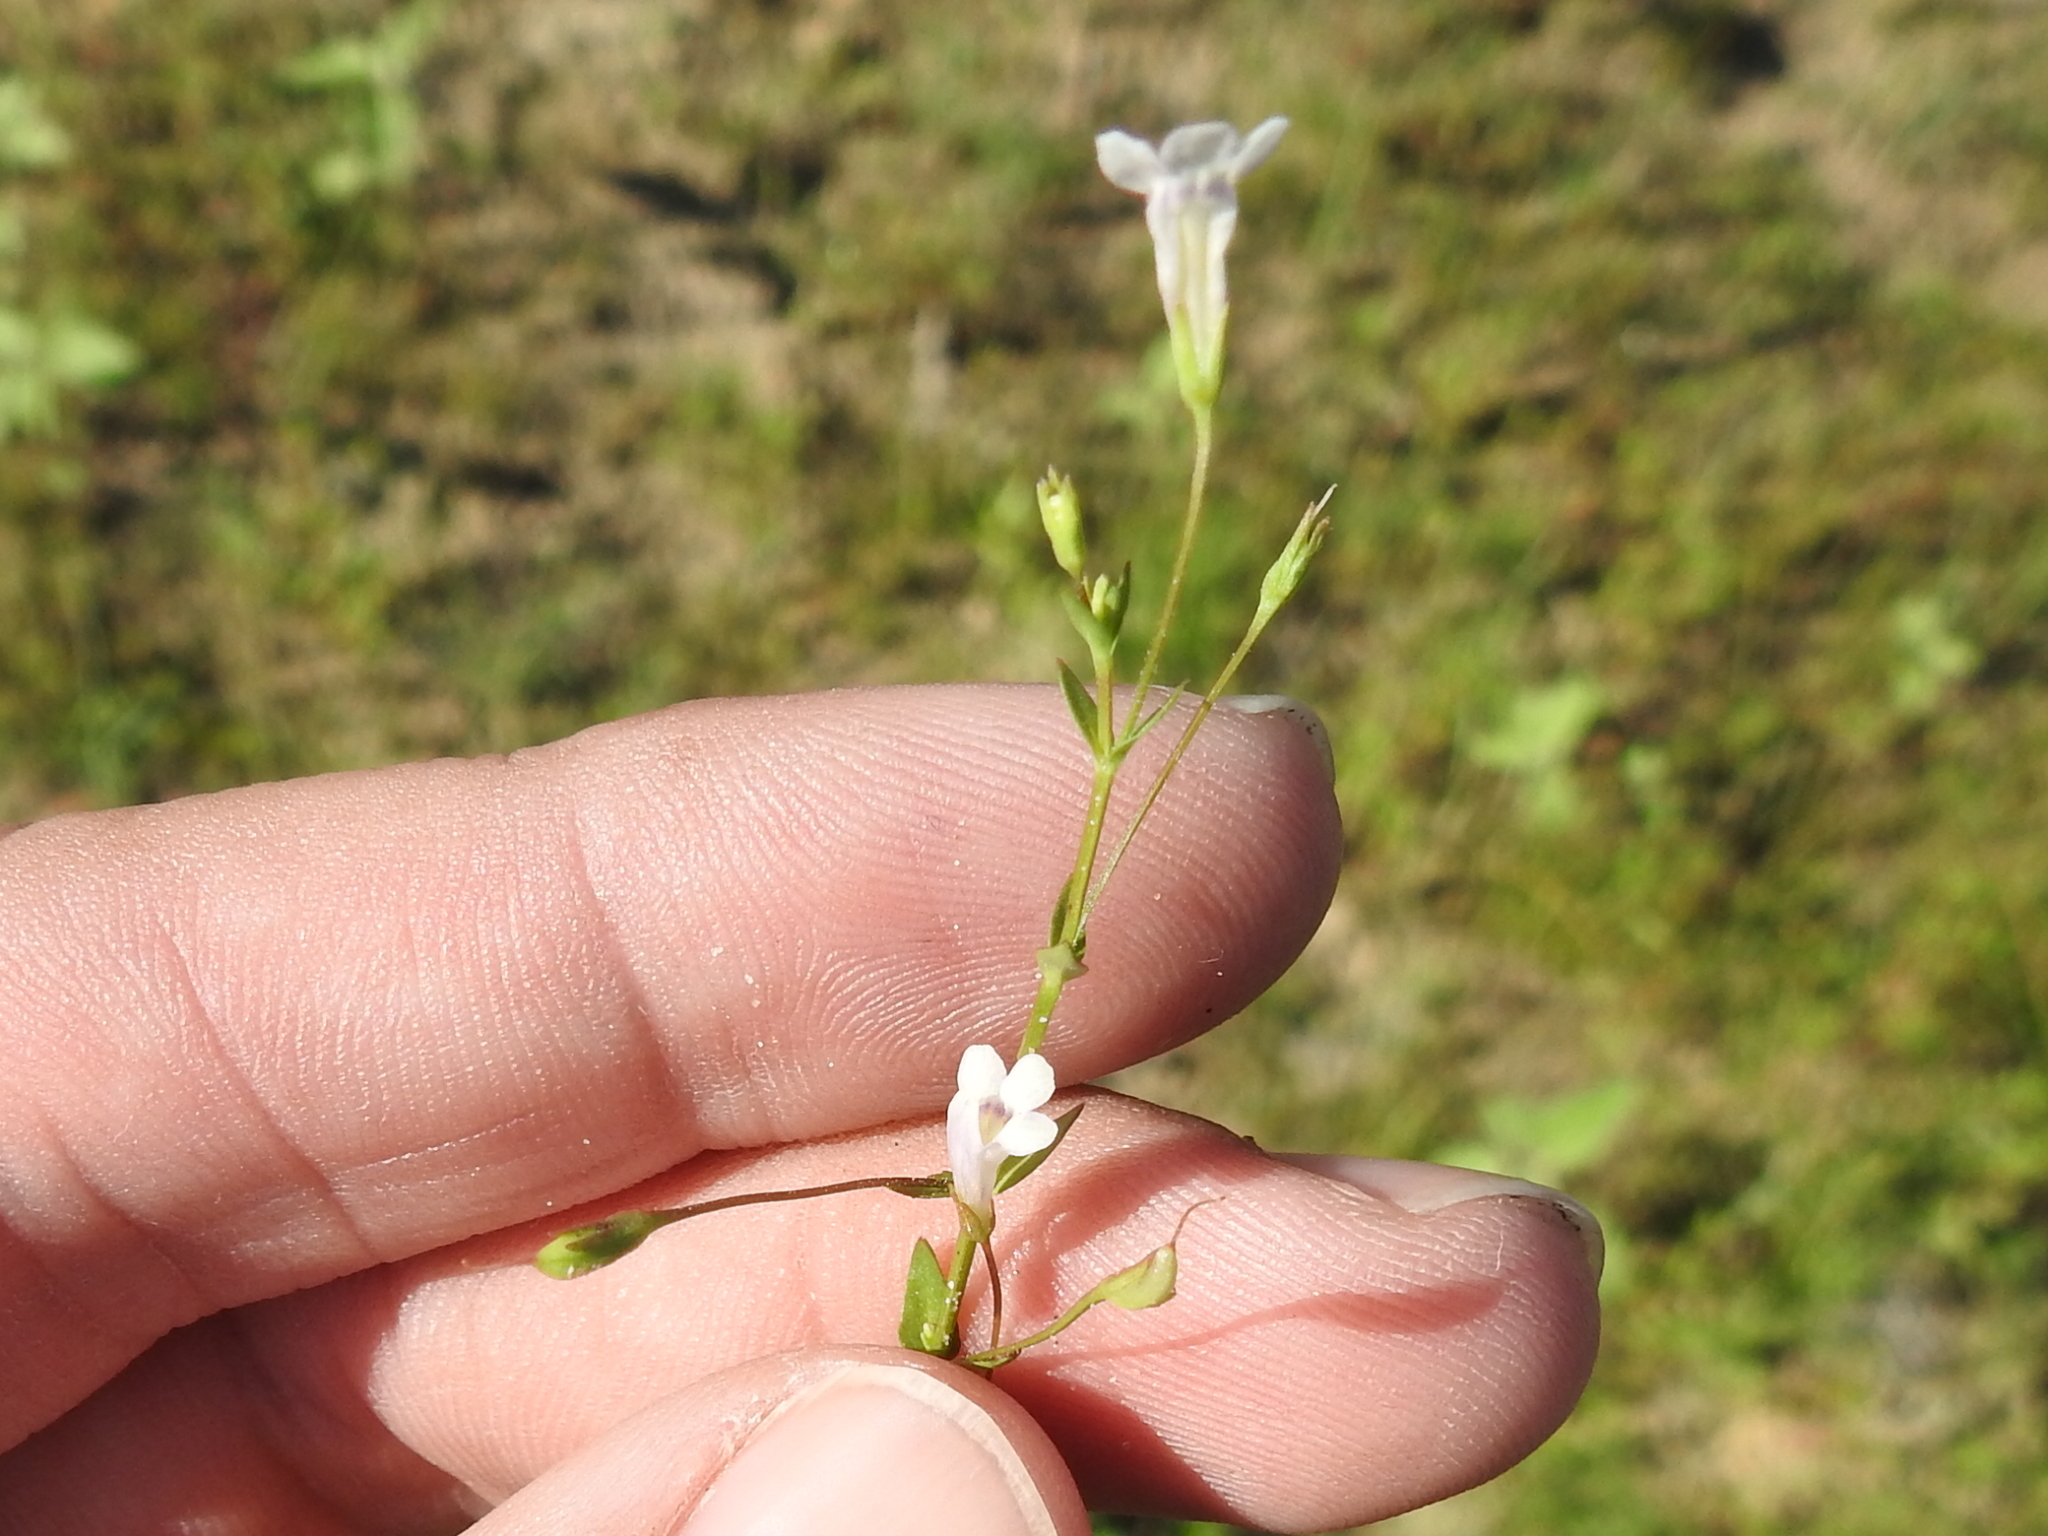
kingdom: Plantae
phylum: Tracheophyta
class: Magnoliopsida
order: Lamiales
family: Linderniaceae
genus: Lindernia
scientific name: Lindernia dubia
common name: Annual false pimpernel
